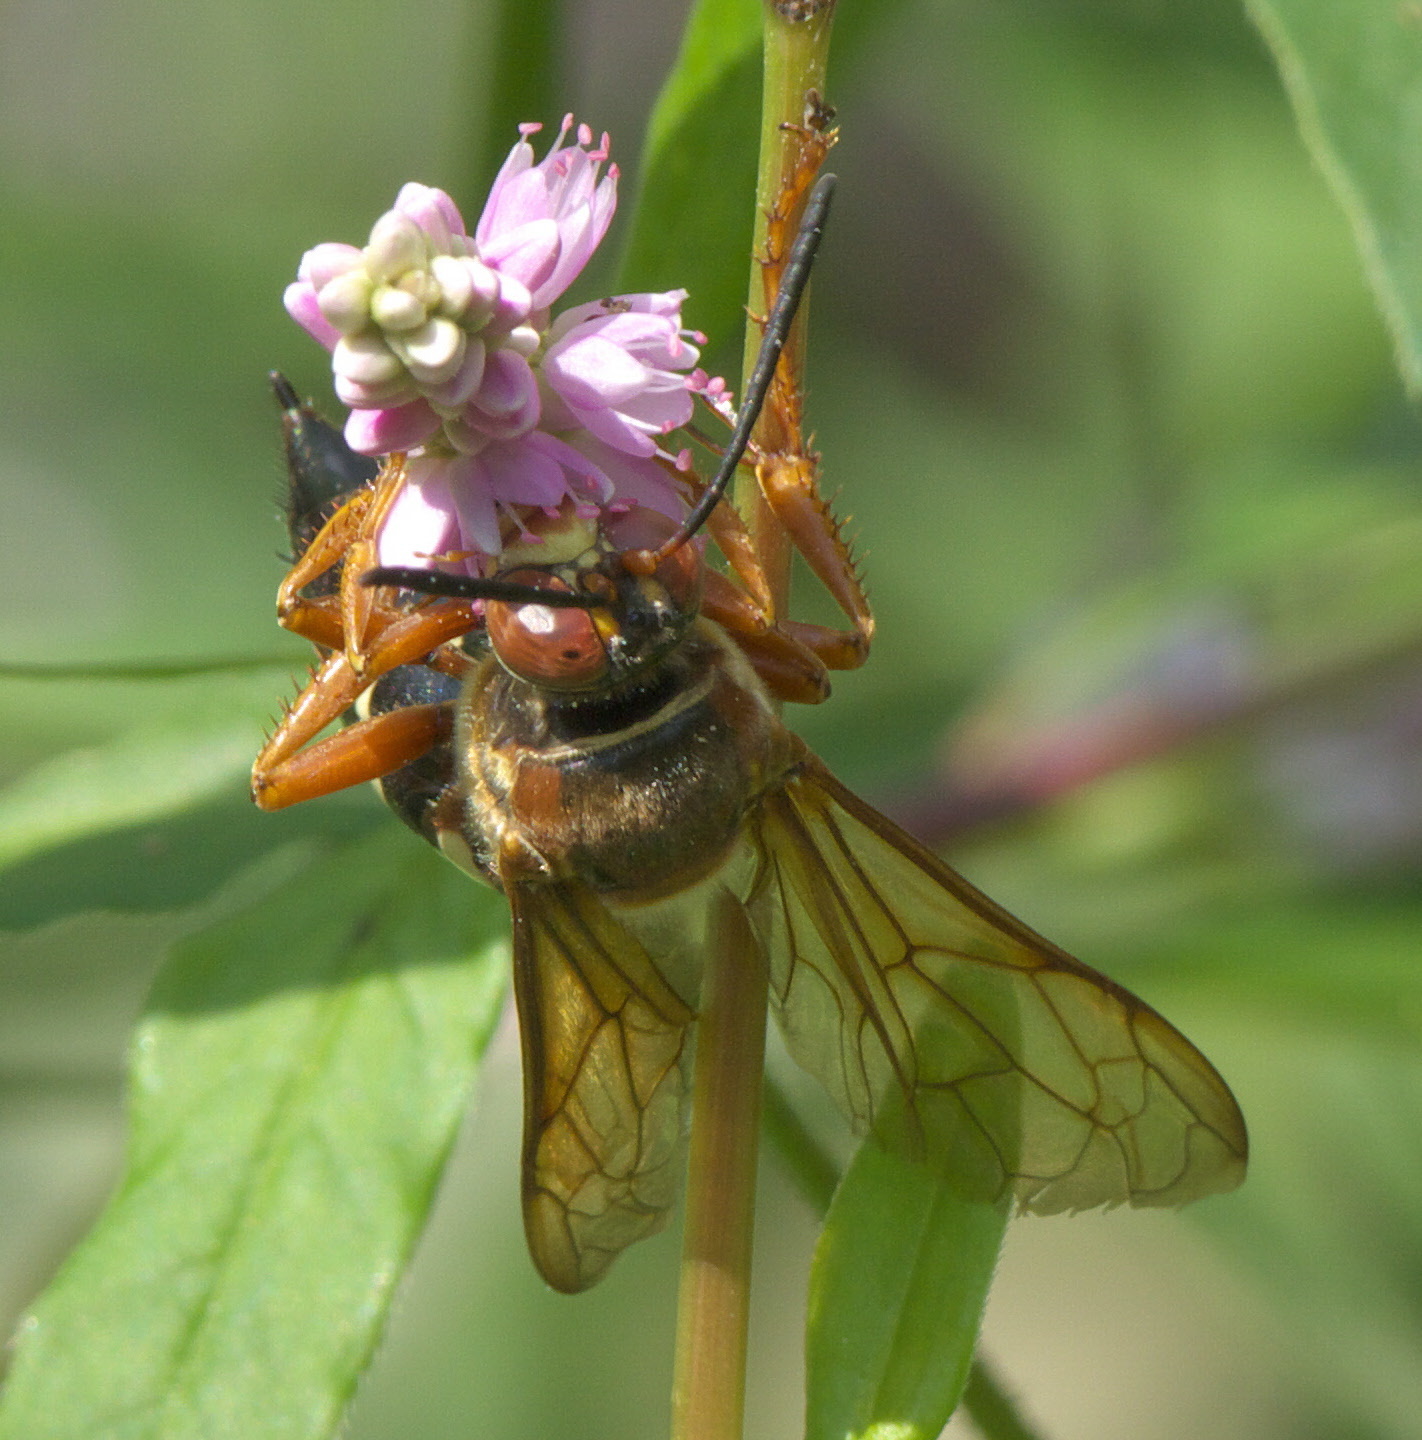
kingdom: Animalia
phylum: Arthropoda
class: Insecta
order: Hymenoptera
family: Crabronidae
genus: Sphecius
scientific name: Sphecius speciosus
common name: Cicada killer
